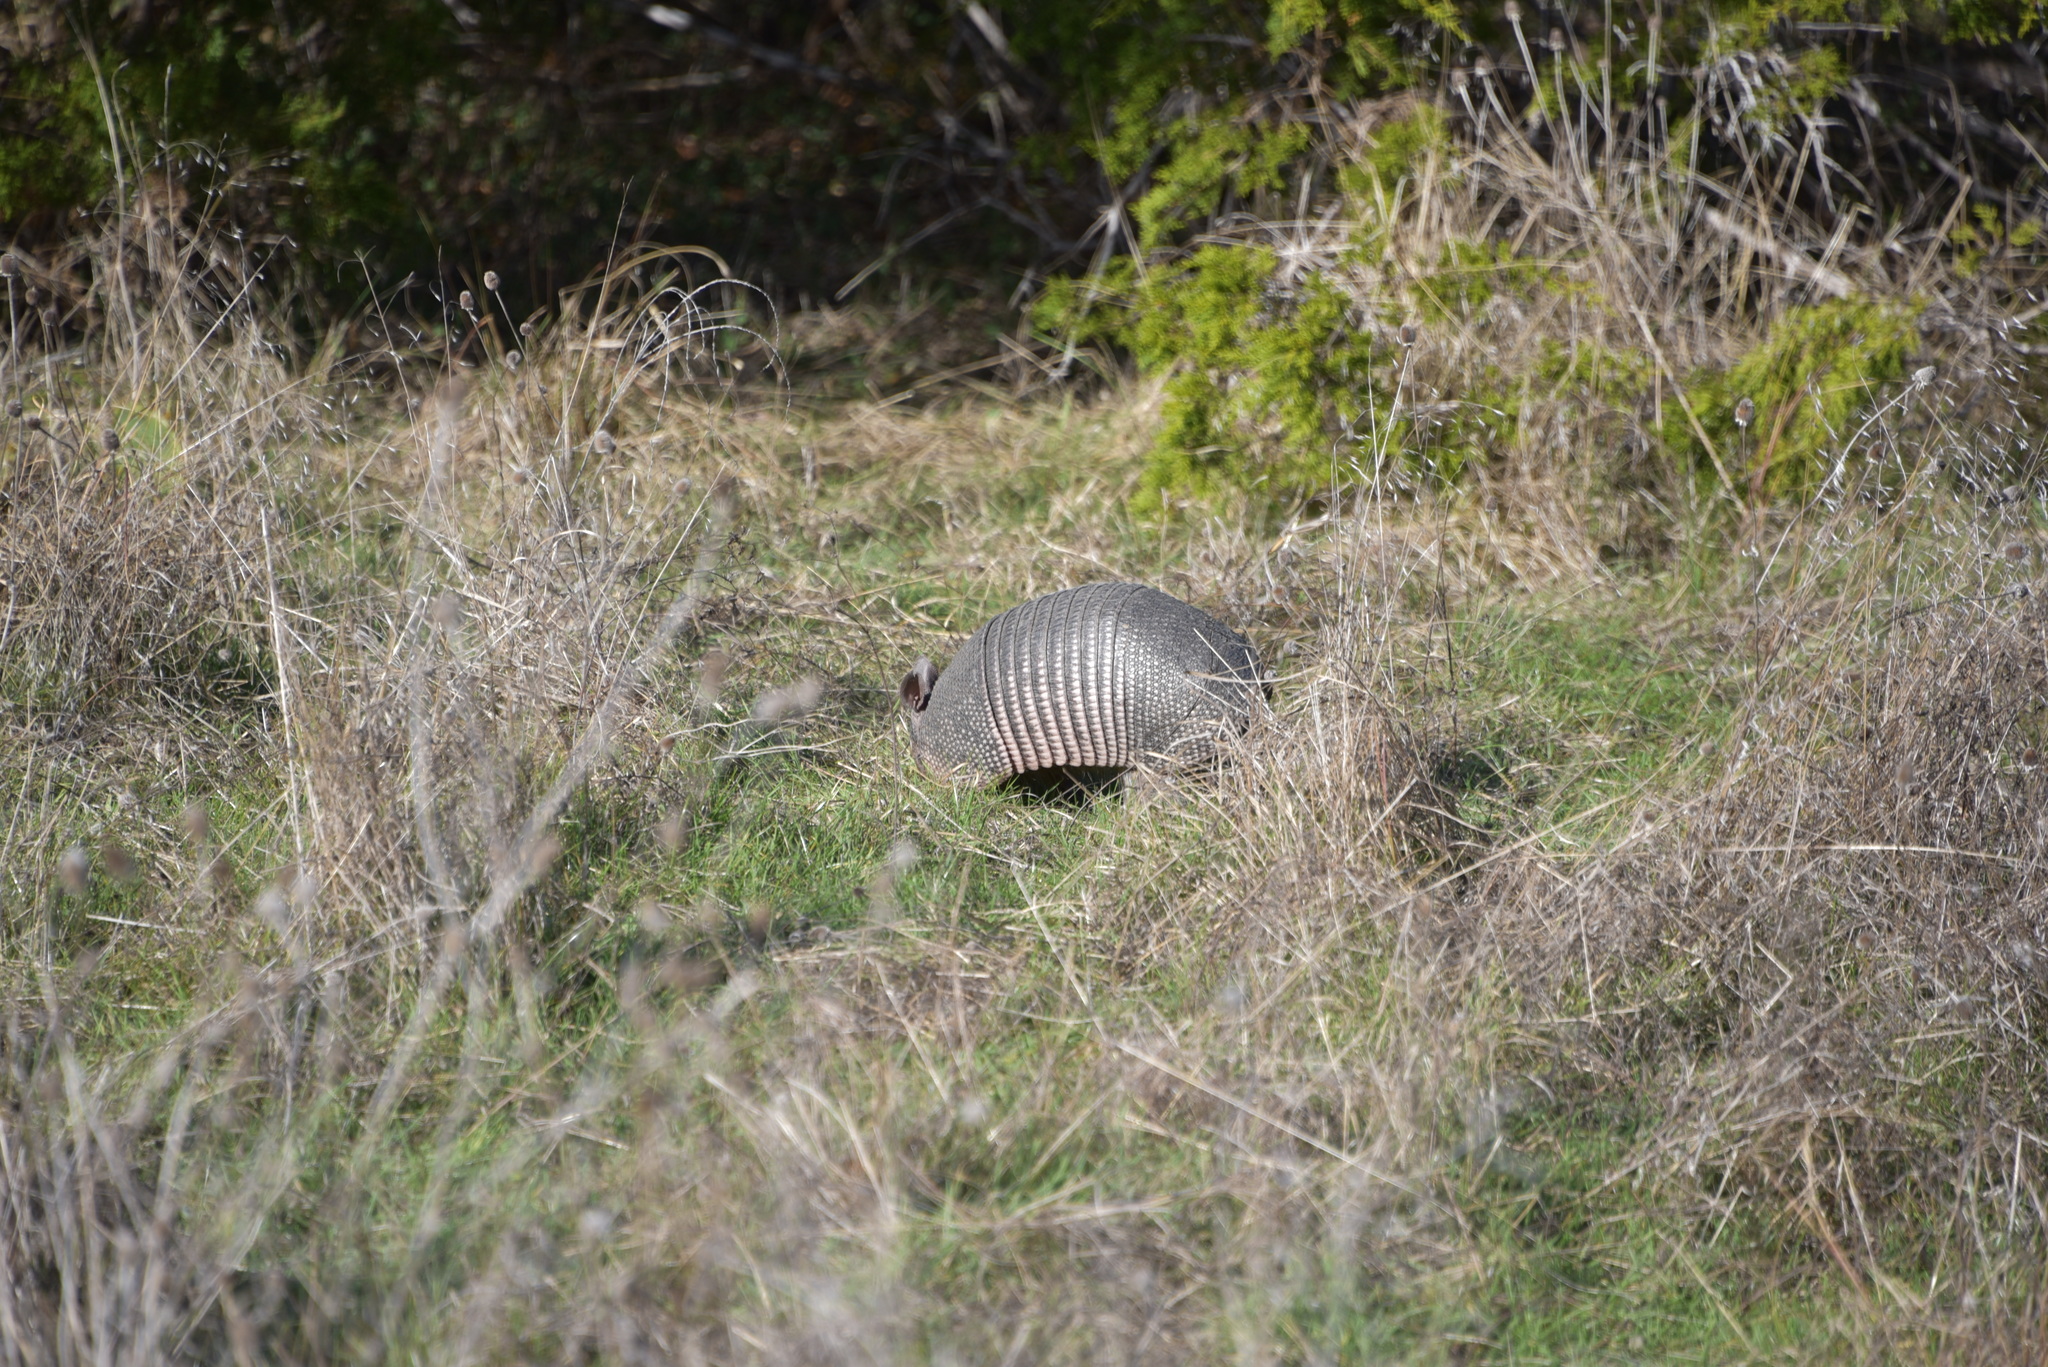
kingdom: Animalia
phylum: Chordata
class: Mammalia
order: Cingulata
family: Dasypodidae
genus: Dasypus
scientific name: Dasypus novemcinctus
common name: Nine-banded armadillo
